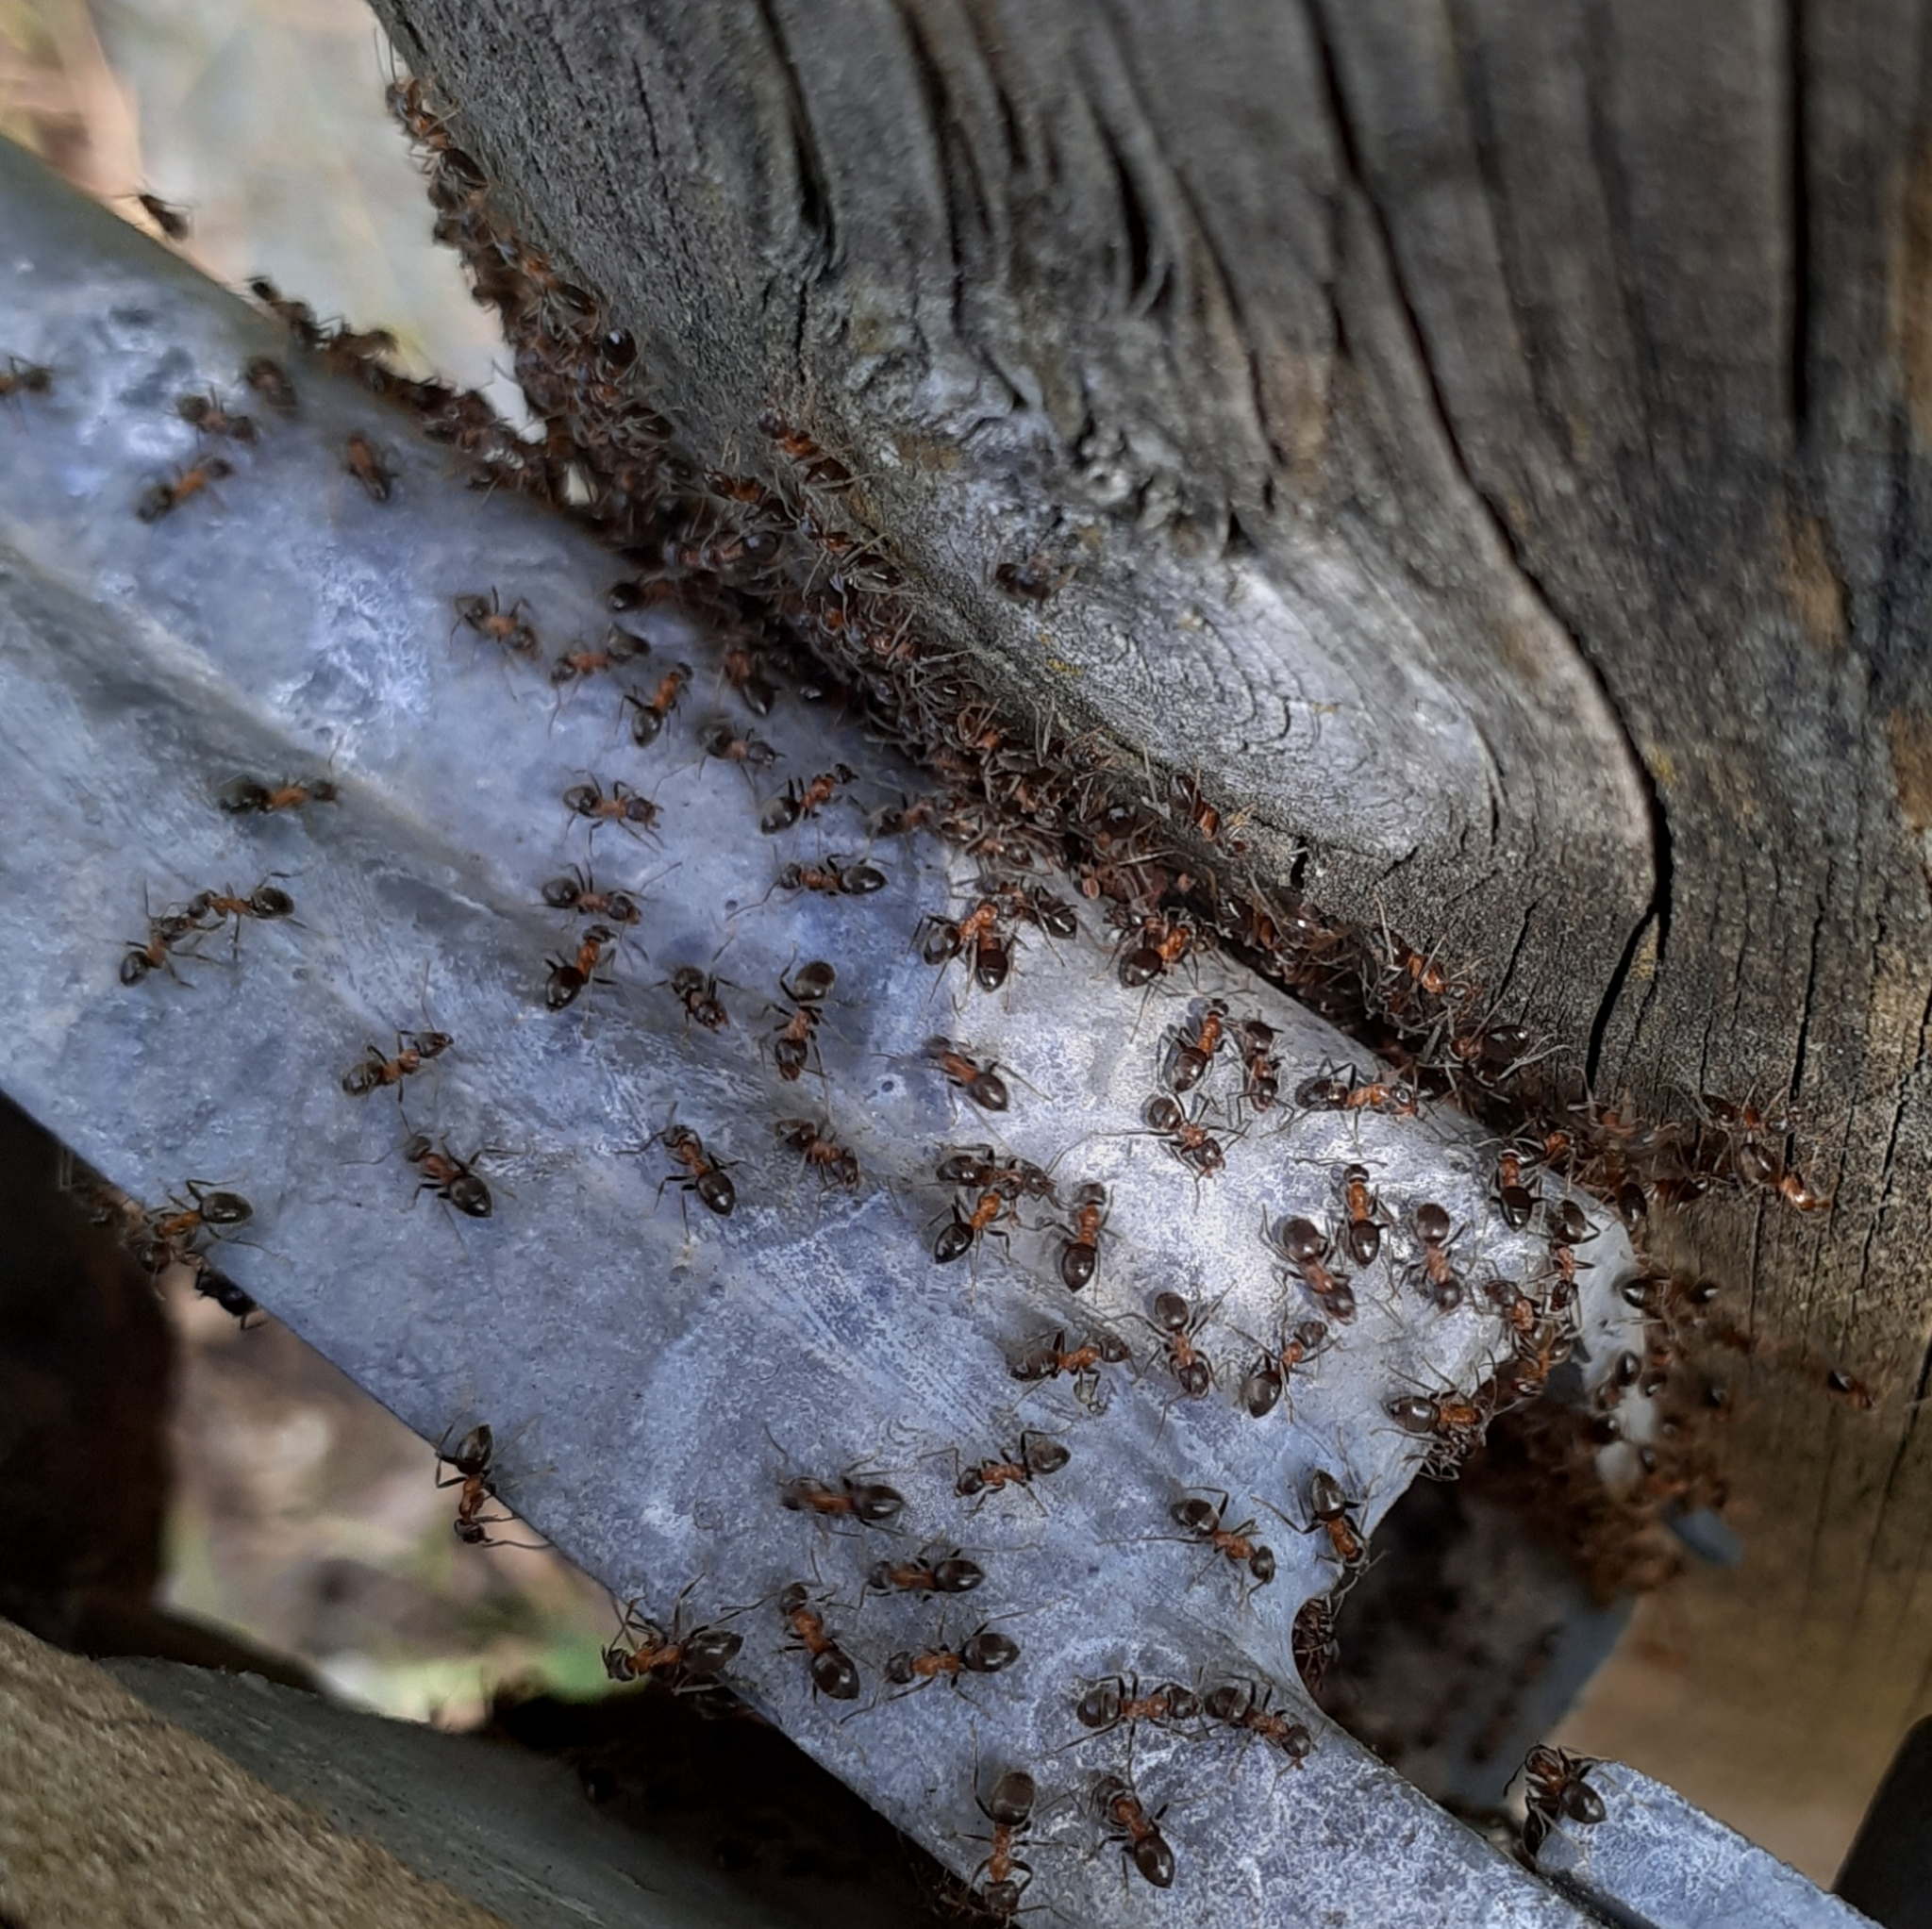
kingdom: Animalia
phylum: Arthropoda
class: Insecta
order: Hymenoptera
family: Formicidae
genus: Lasius
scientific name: Lasius emarginatus
